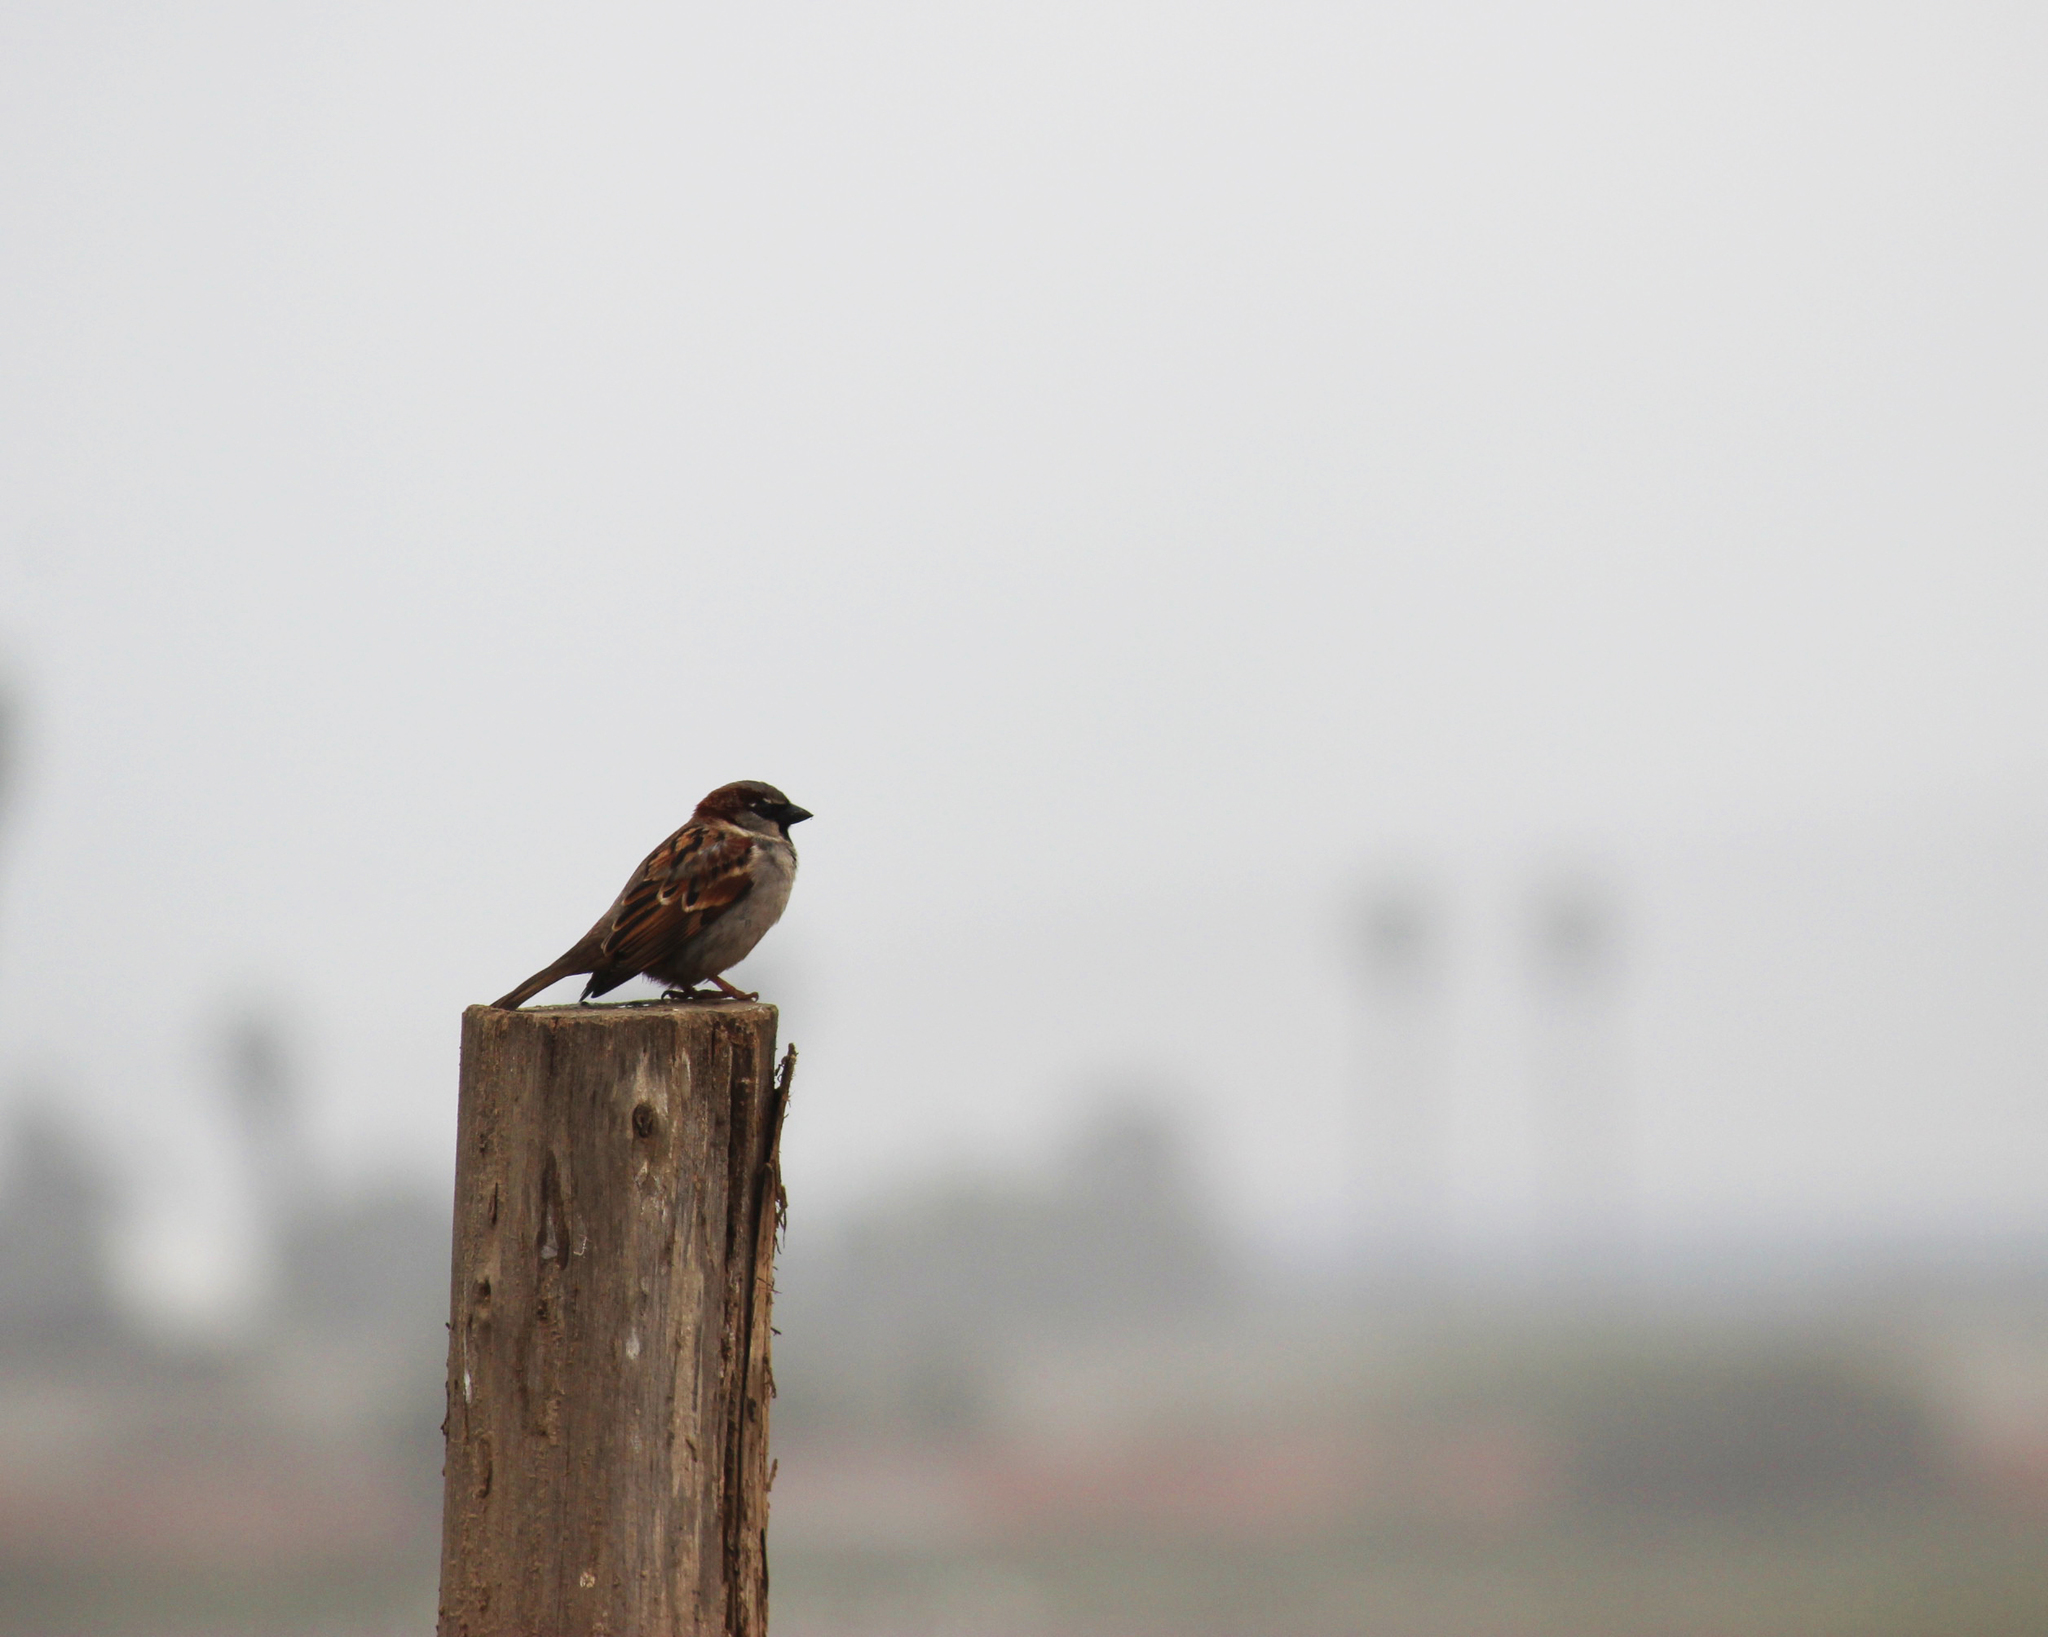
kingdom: Animalia
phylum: Chordata
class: Aves
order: Passeriformes
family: Passeridae
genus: Passer
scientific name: Passer domesticus
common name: House sparrow
